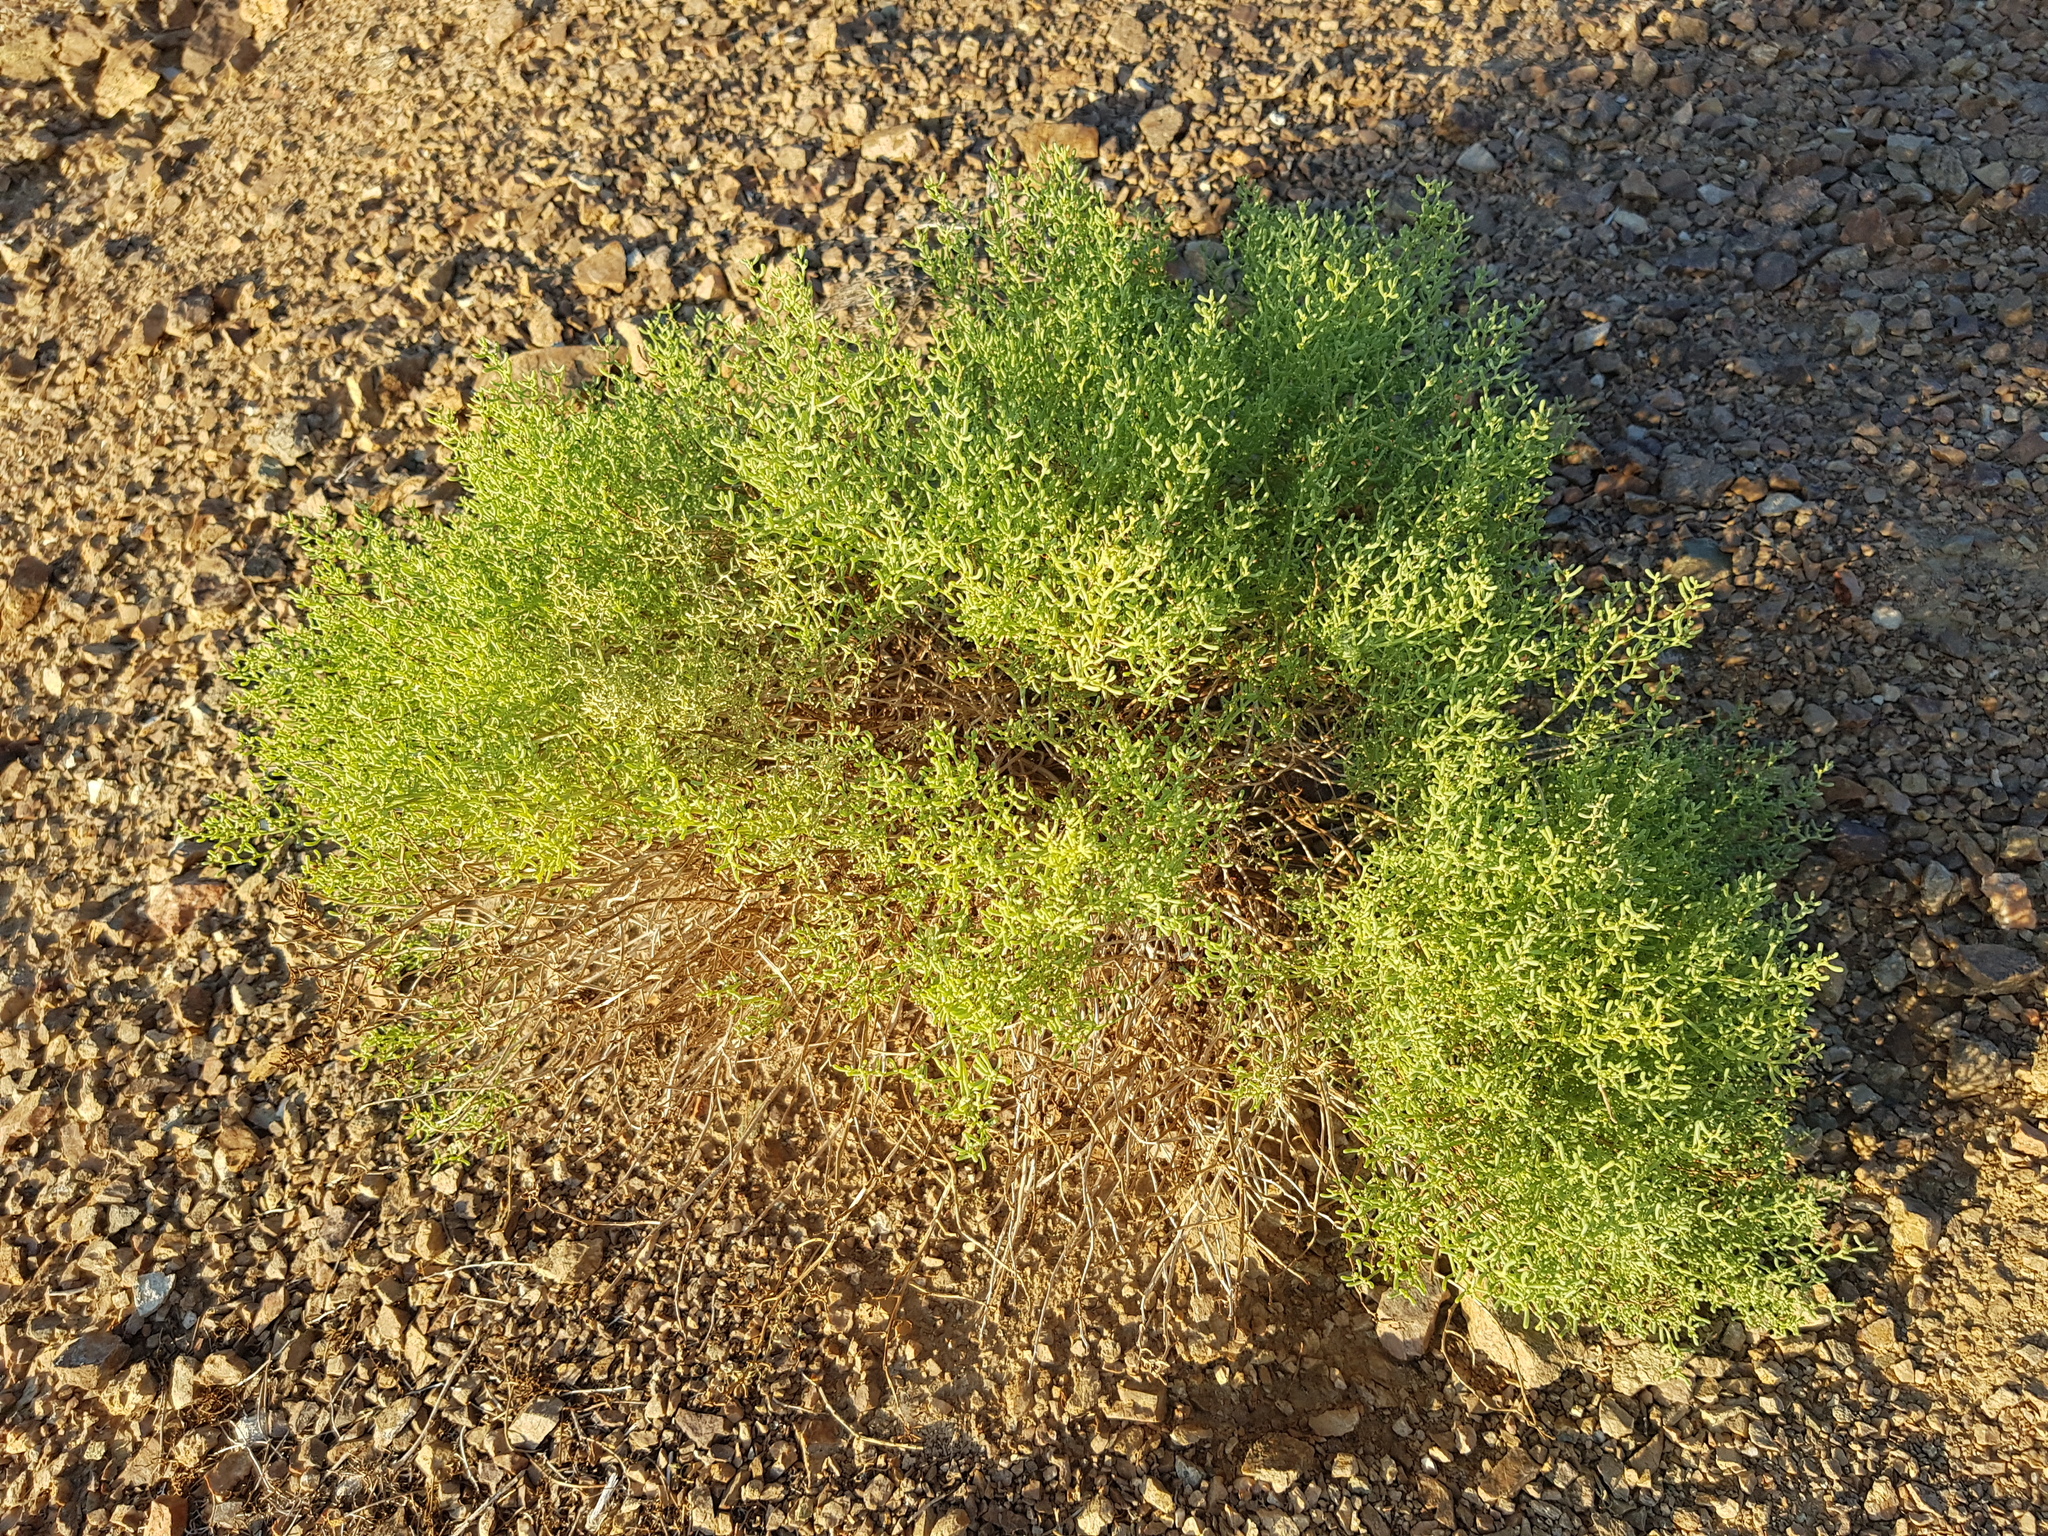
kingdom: Plantae
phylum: Tracheophyta
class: Magnoliopsida
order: Caryophyllales
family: Amaranthaceae
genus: Haloxylon
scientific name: Haloxylon regelii
